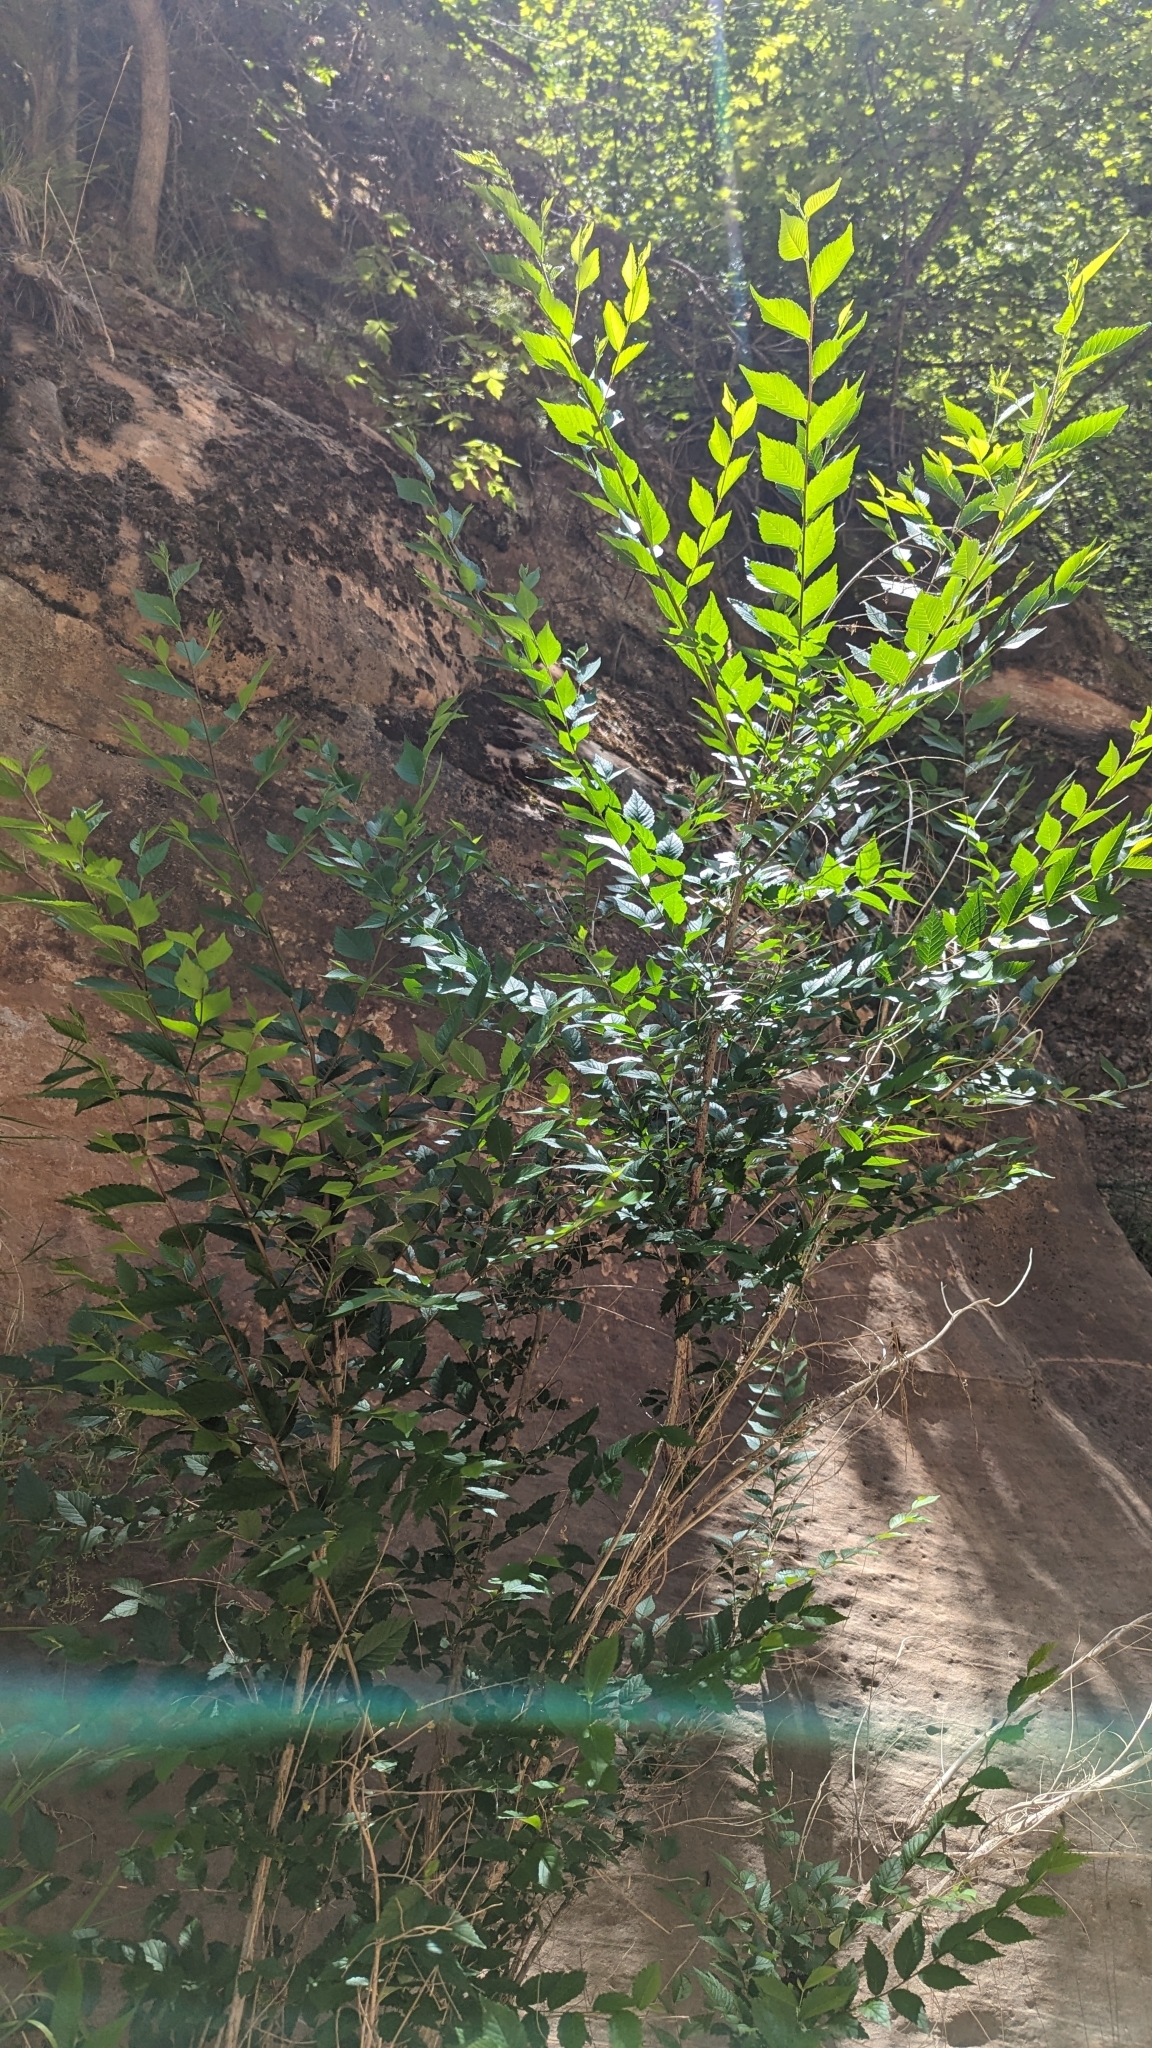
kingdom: Plantae
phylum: Tracheophyta
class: Magnoliopsida
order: Rosales
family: Ulmaceae
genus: Ulmus
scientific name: Ulmus pumila
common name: Siberian elm
